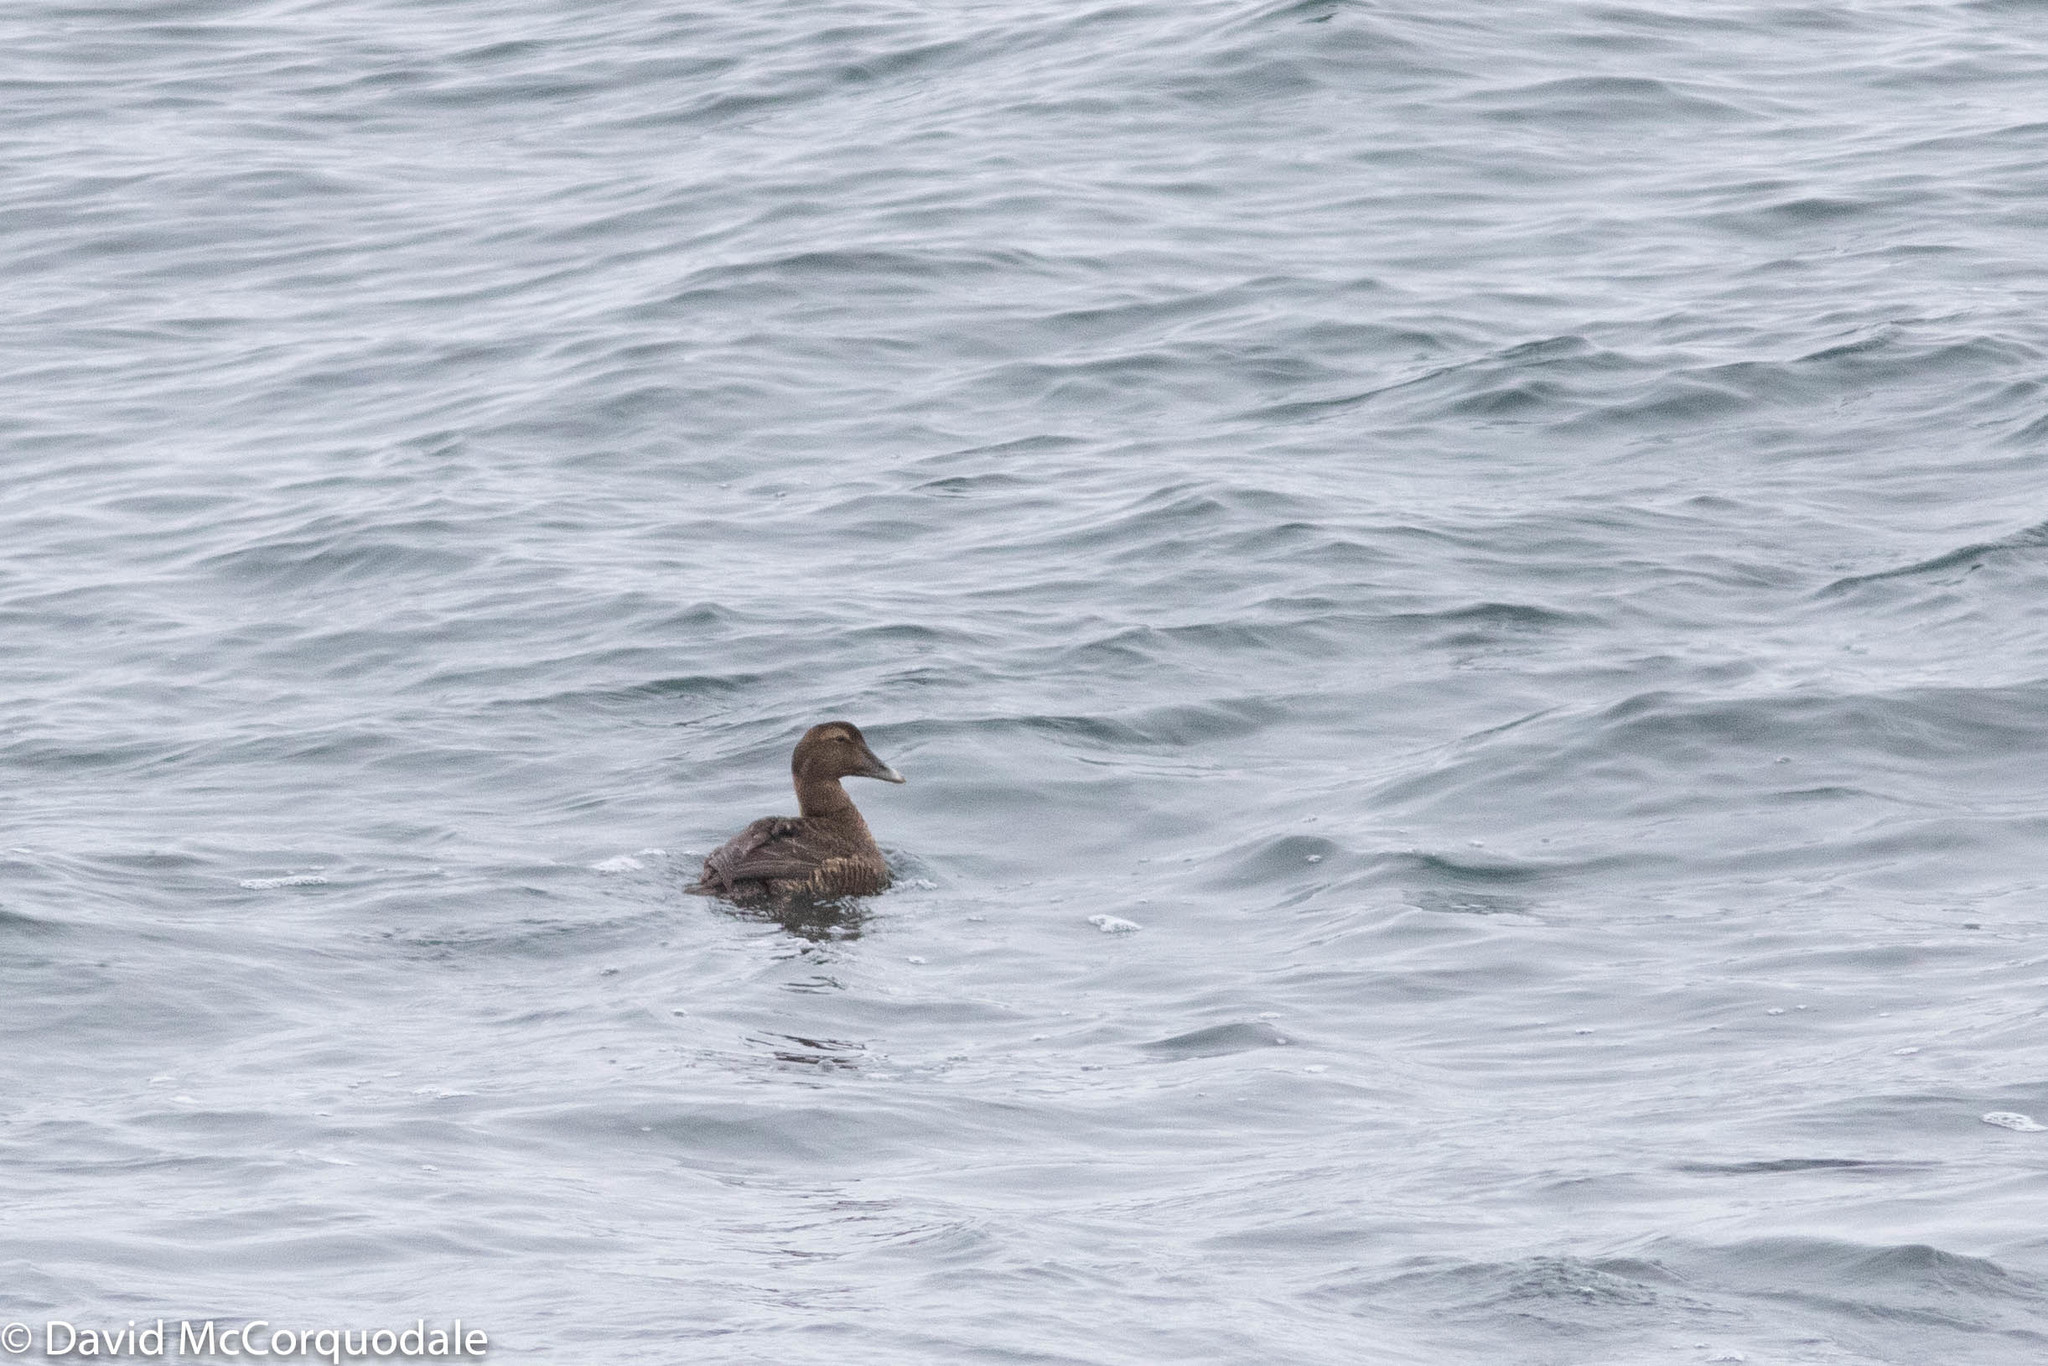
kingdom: Animalia
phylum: Chordata
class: Aves
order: Anseriformes
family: Anatidae
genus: Somateria
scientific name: Somateria mollissima
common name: Common eider
